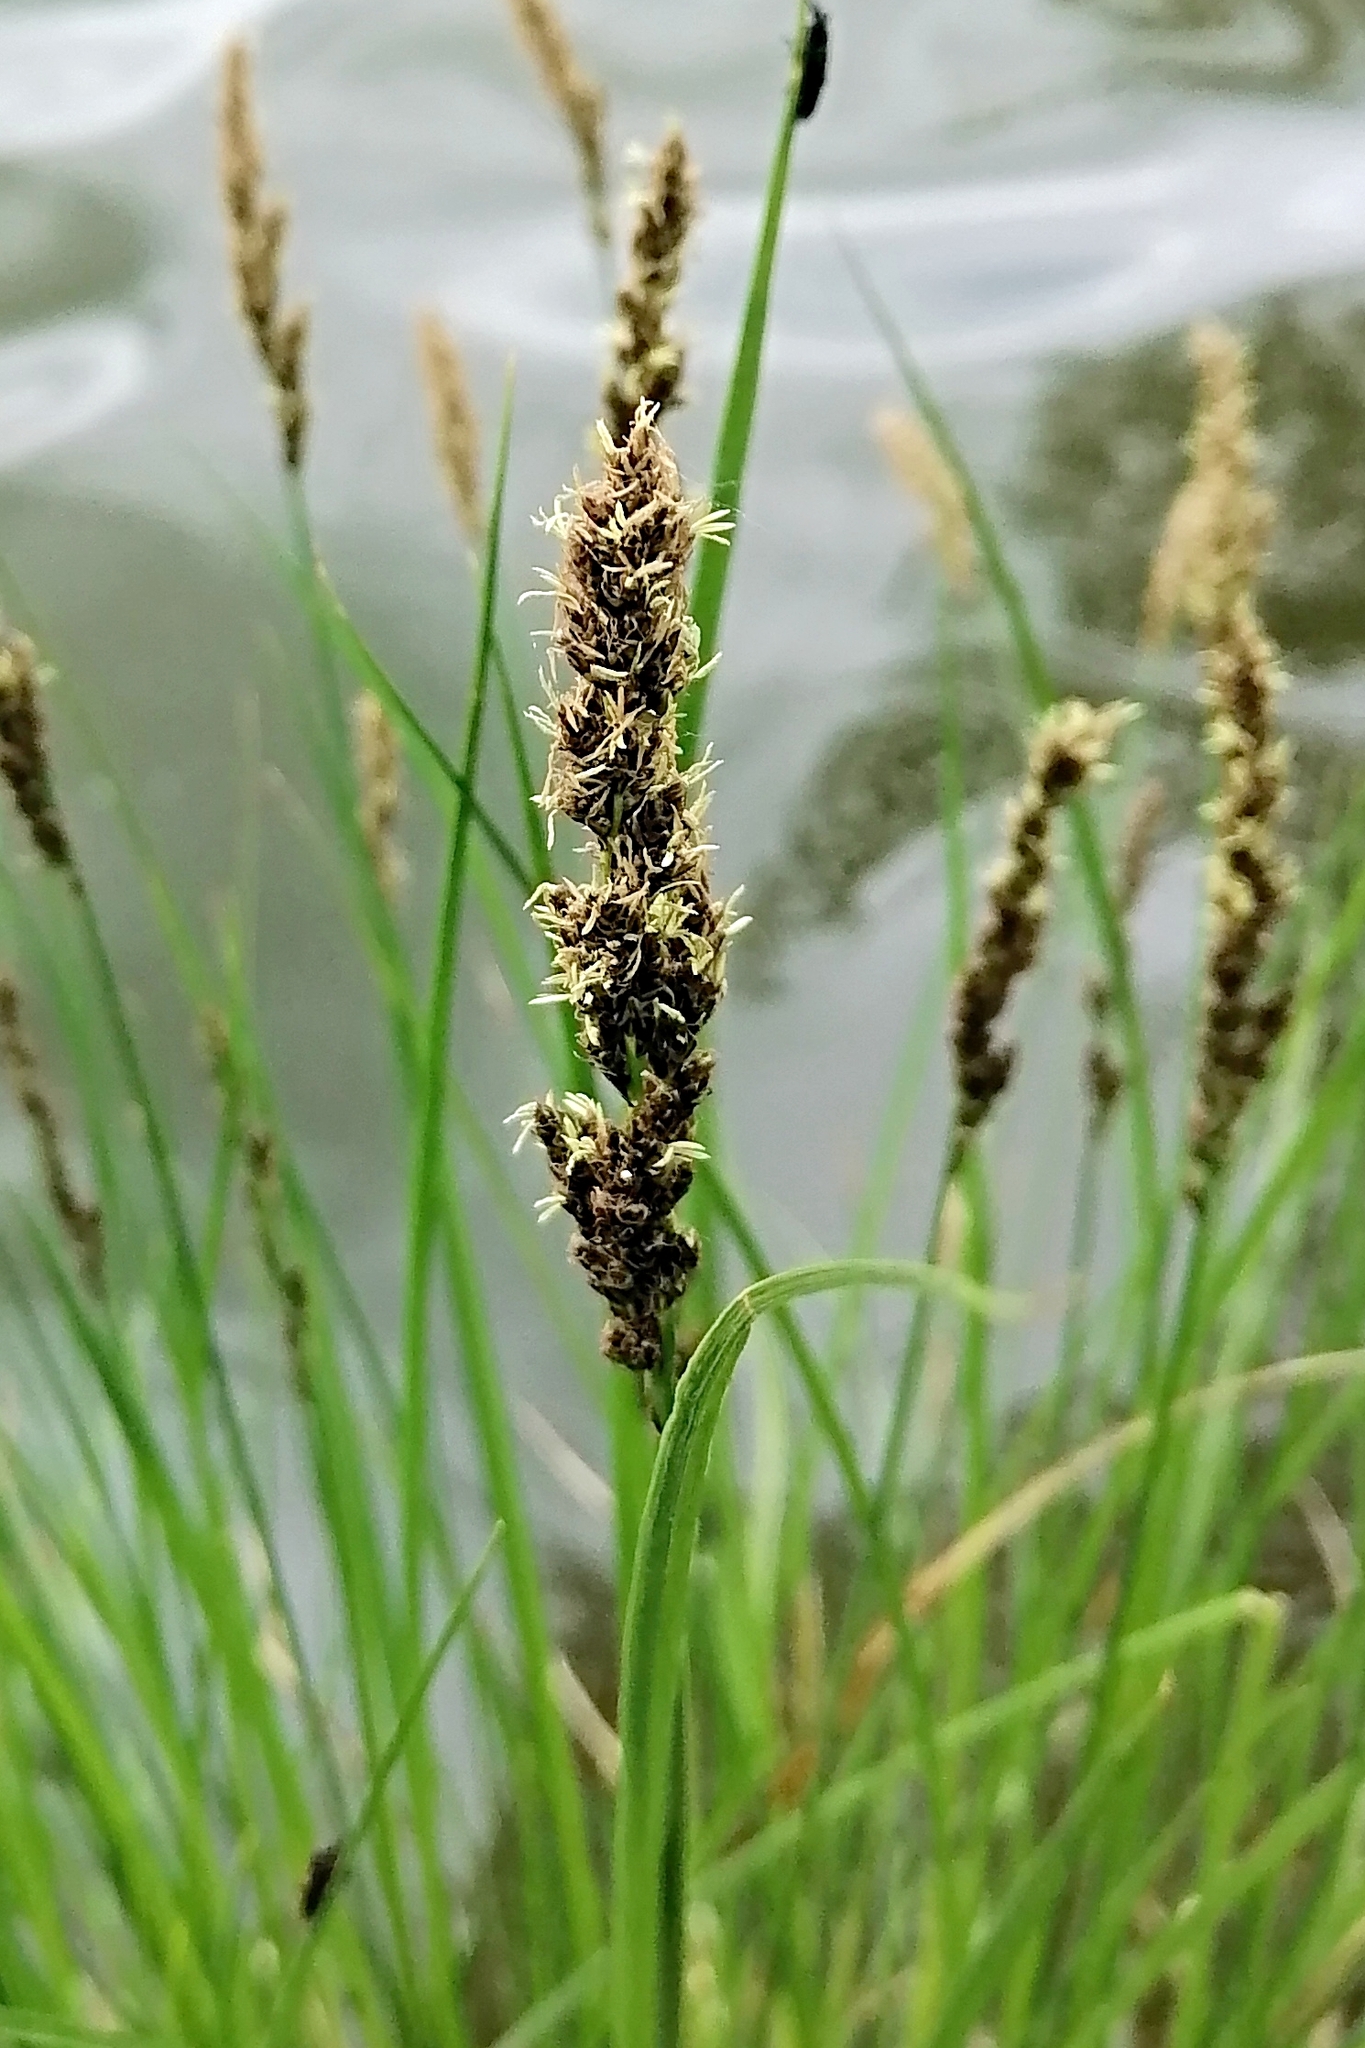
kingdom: Plantae
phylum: Tracheophyta
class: Liliopsida
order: Poales
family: Cyperaceae
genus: Carex
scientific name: Carex paniculata
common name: Greater tussock-sedge
